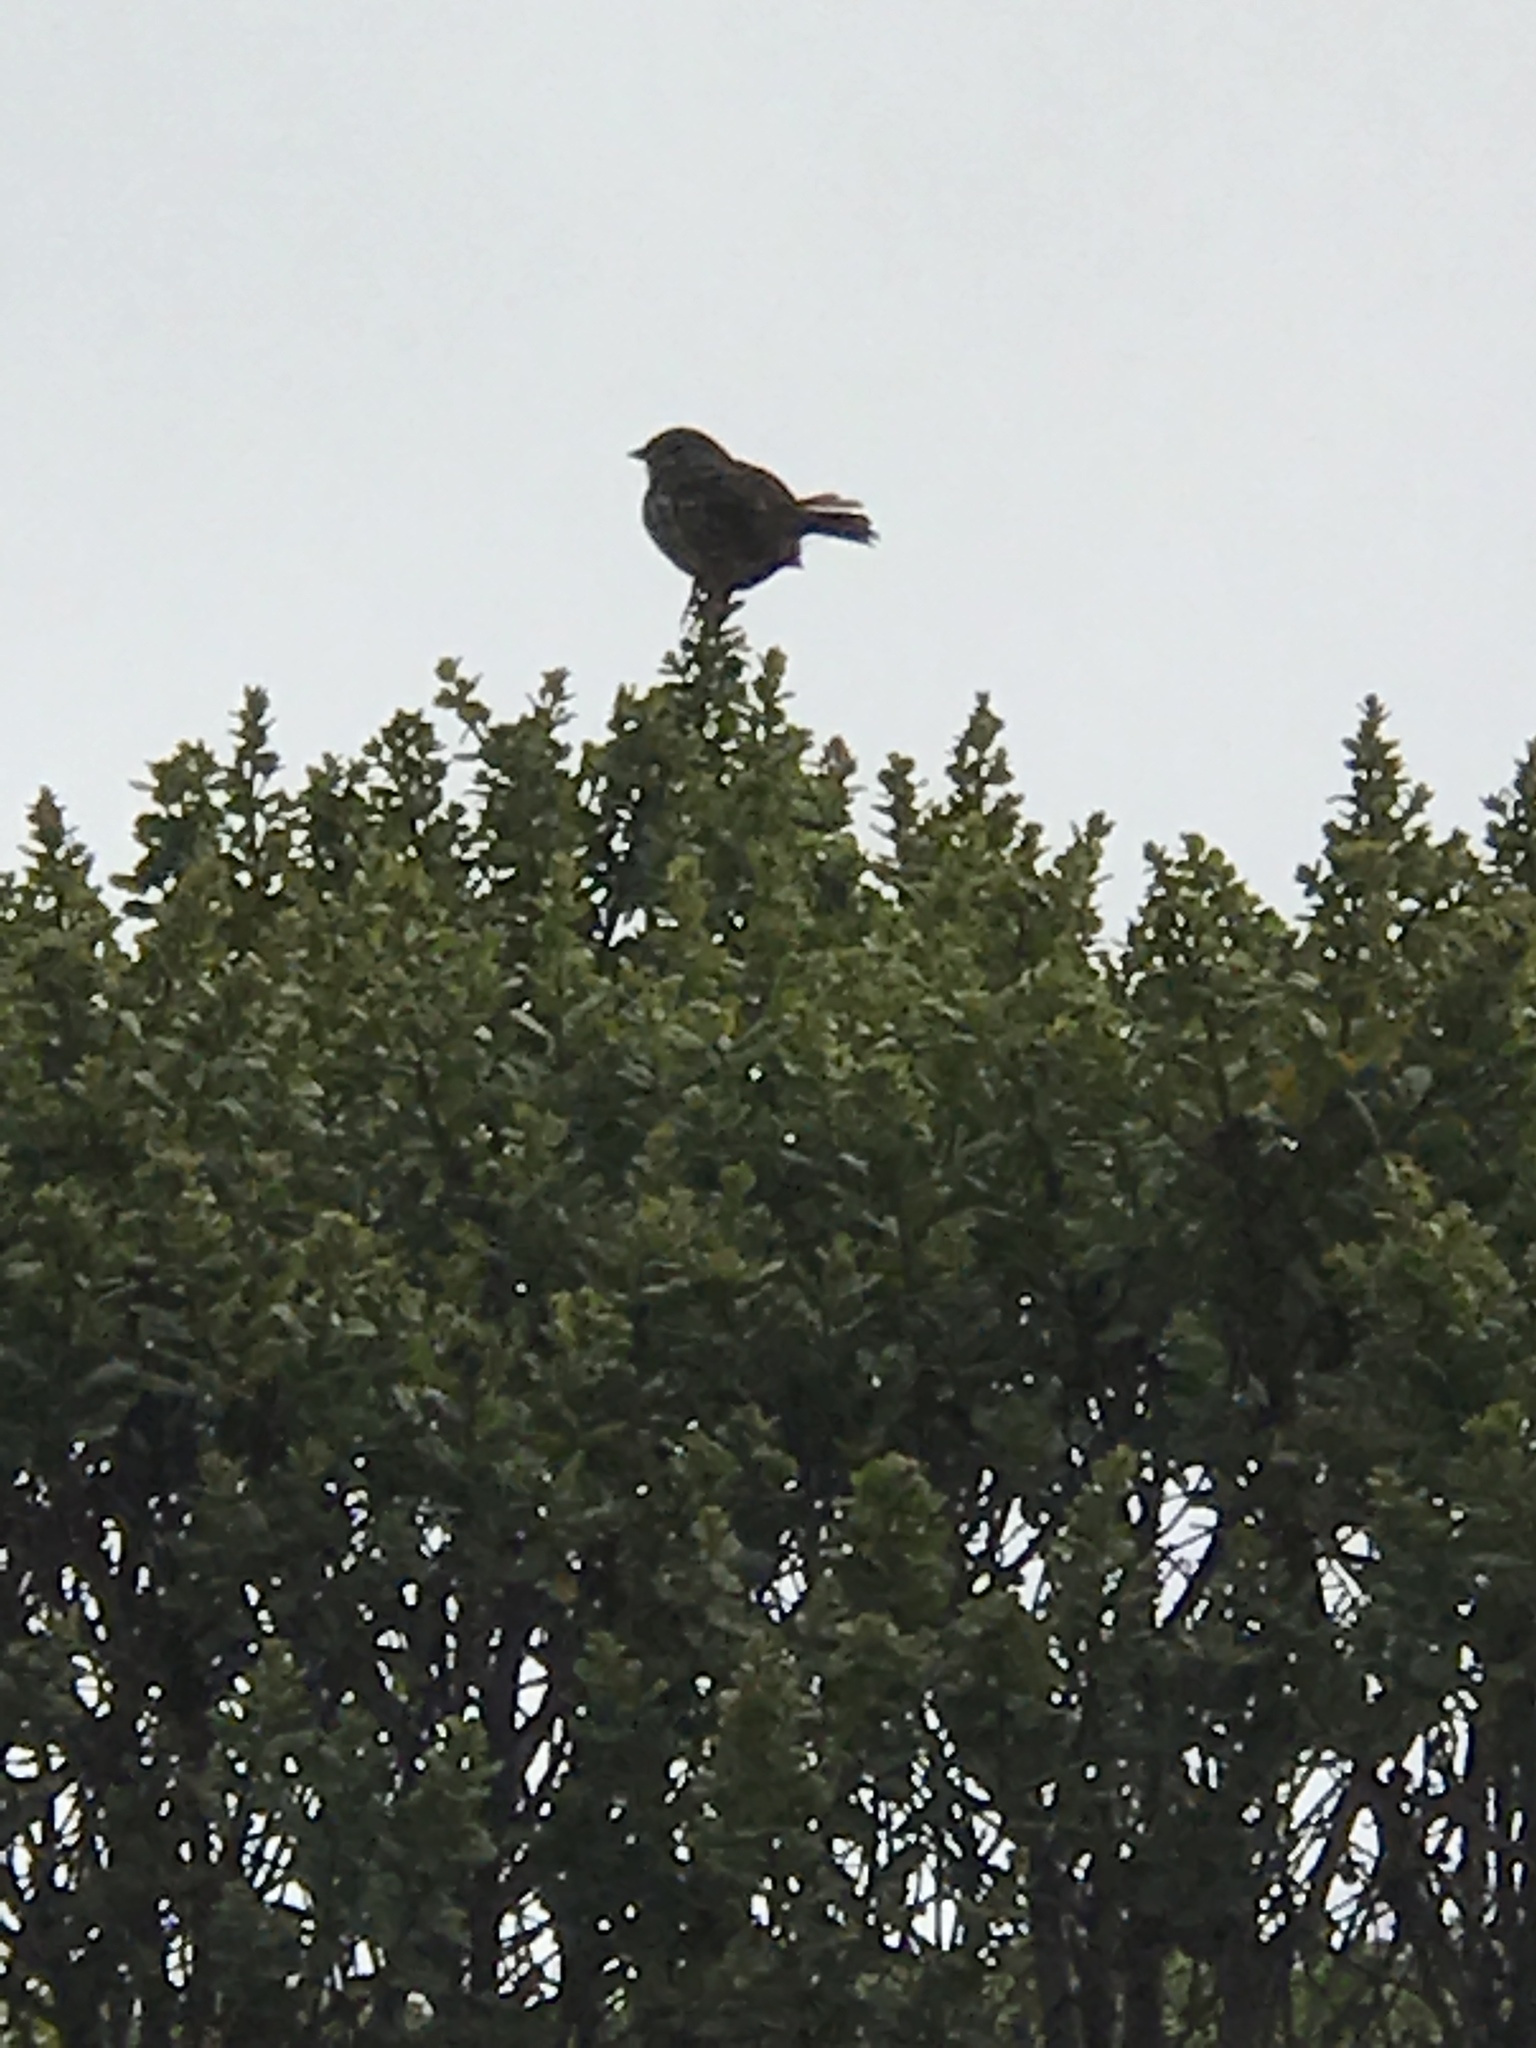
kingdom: Animalia
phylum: Chordata
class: Aves
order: Passeriformes
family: Passerellidae
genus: Melospiza
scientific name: Melospiza melodia
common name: Song sparrow
